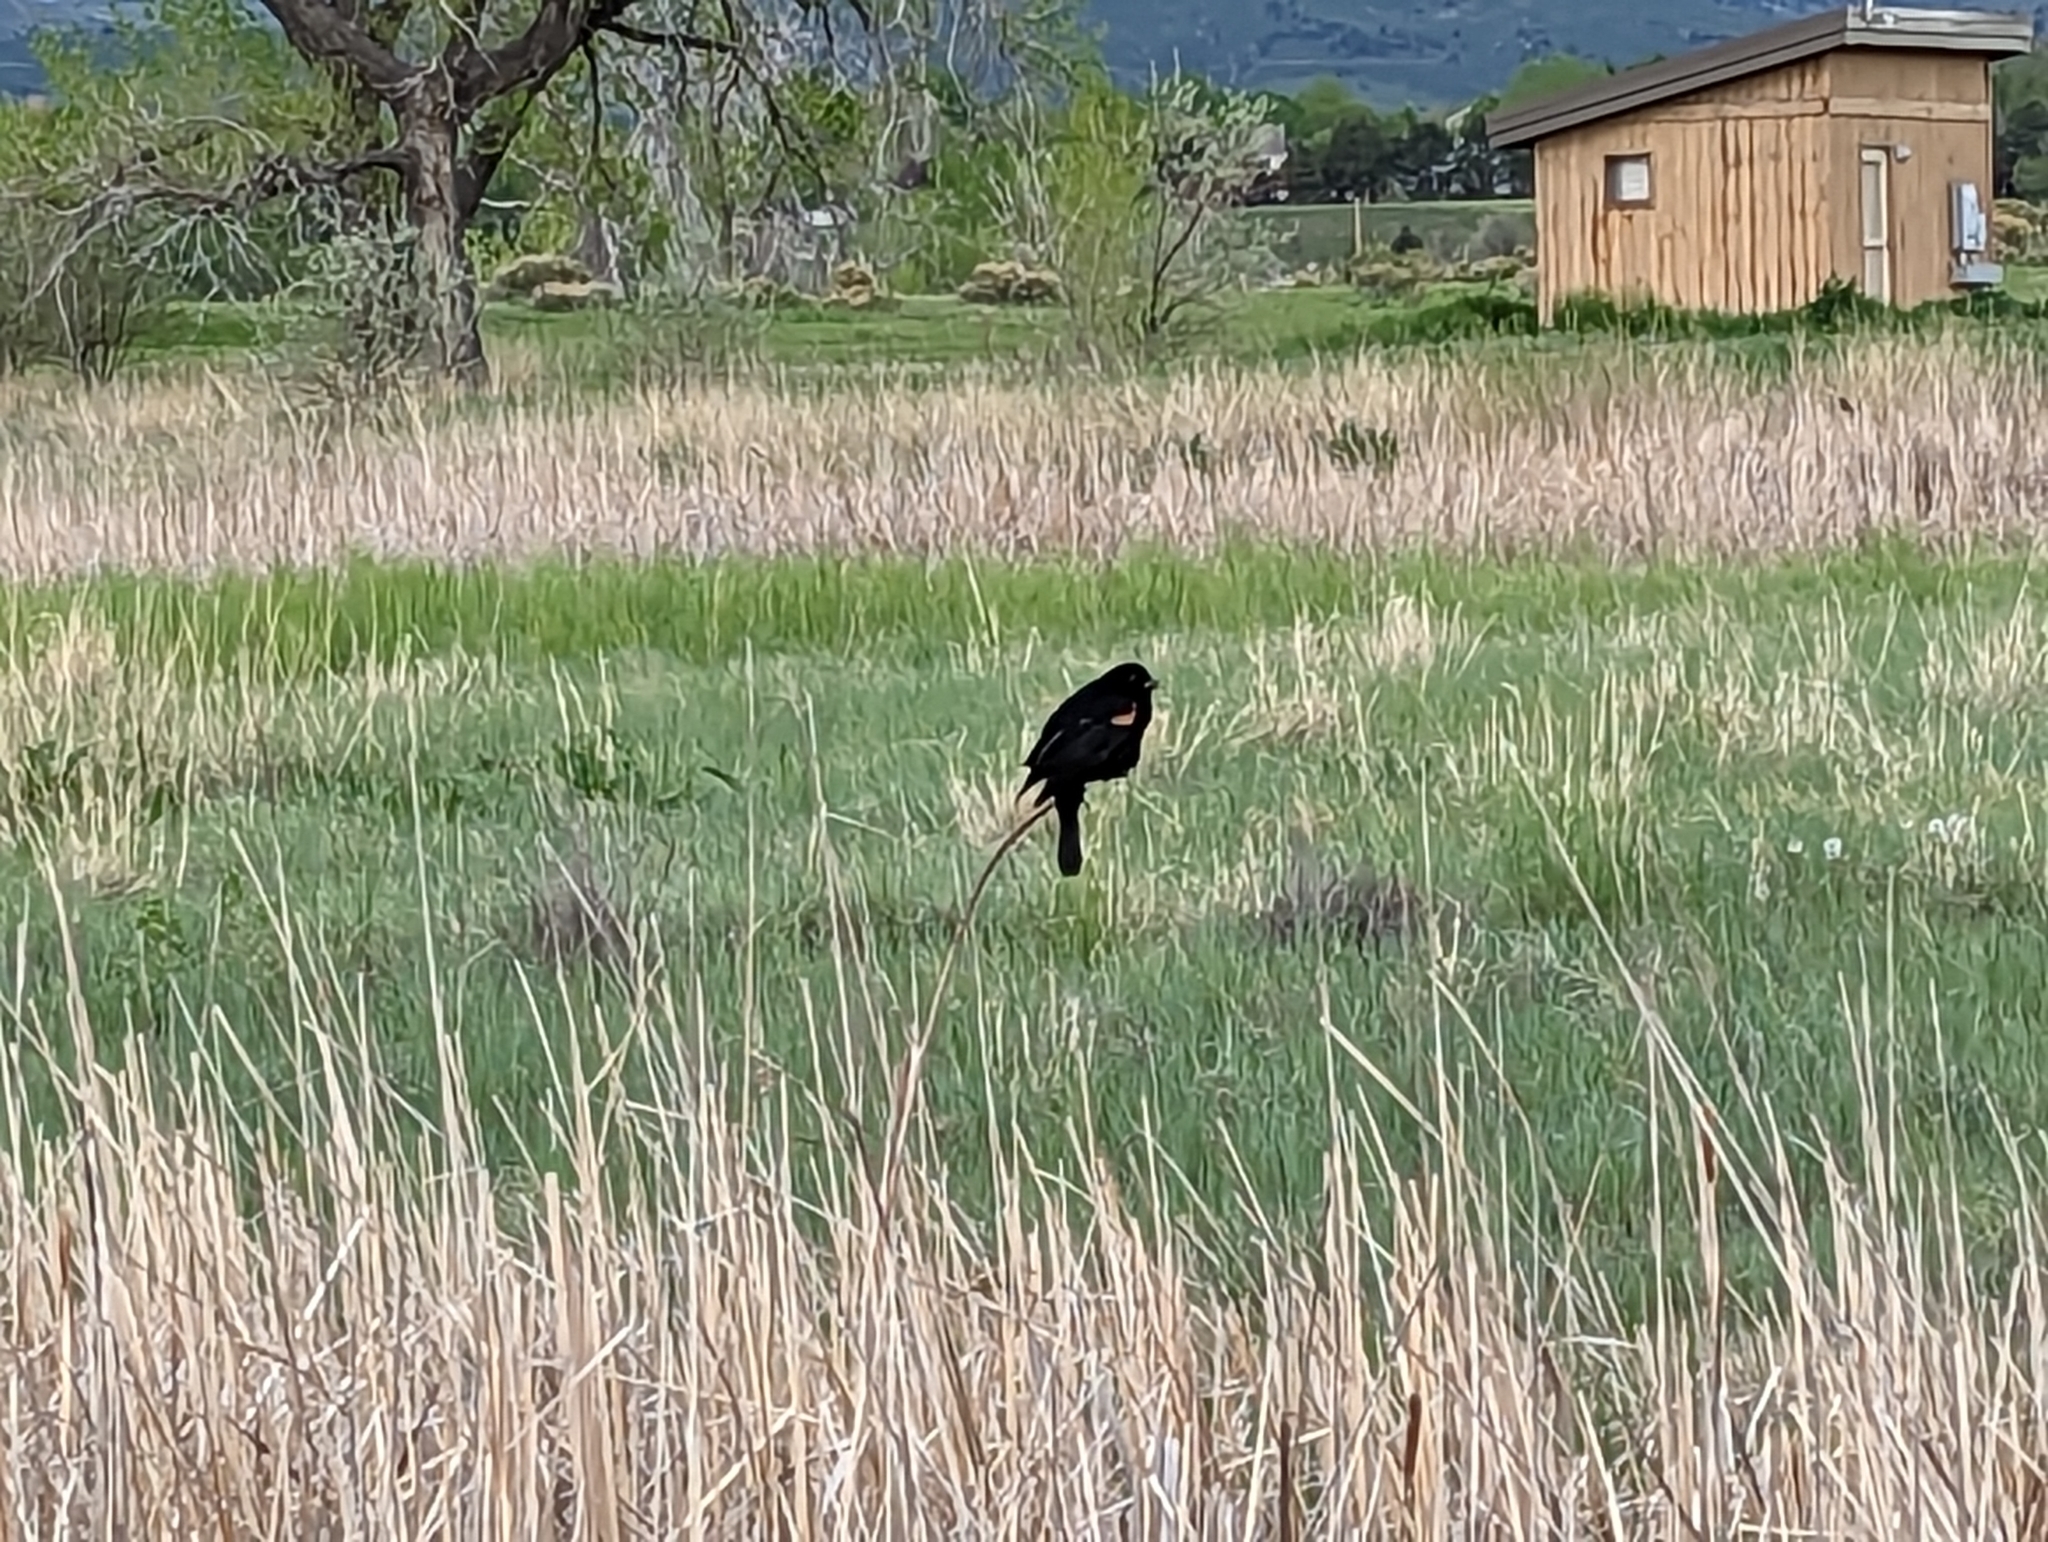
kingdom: Animalia
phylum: Chordata
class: Aves
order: Passeriformes
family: Icteridae
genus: Agelaius
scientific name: Agelaius phoeniceus
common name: Red-winged blackbird
